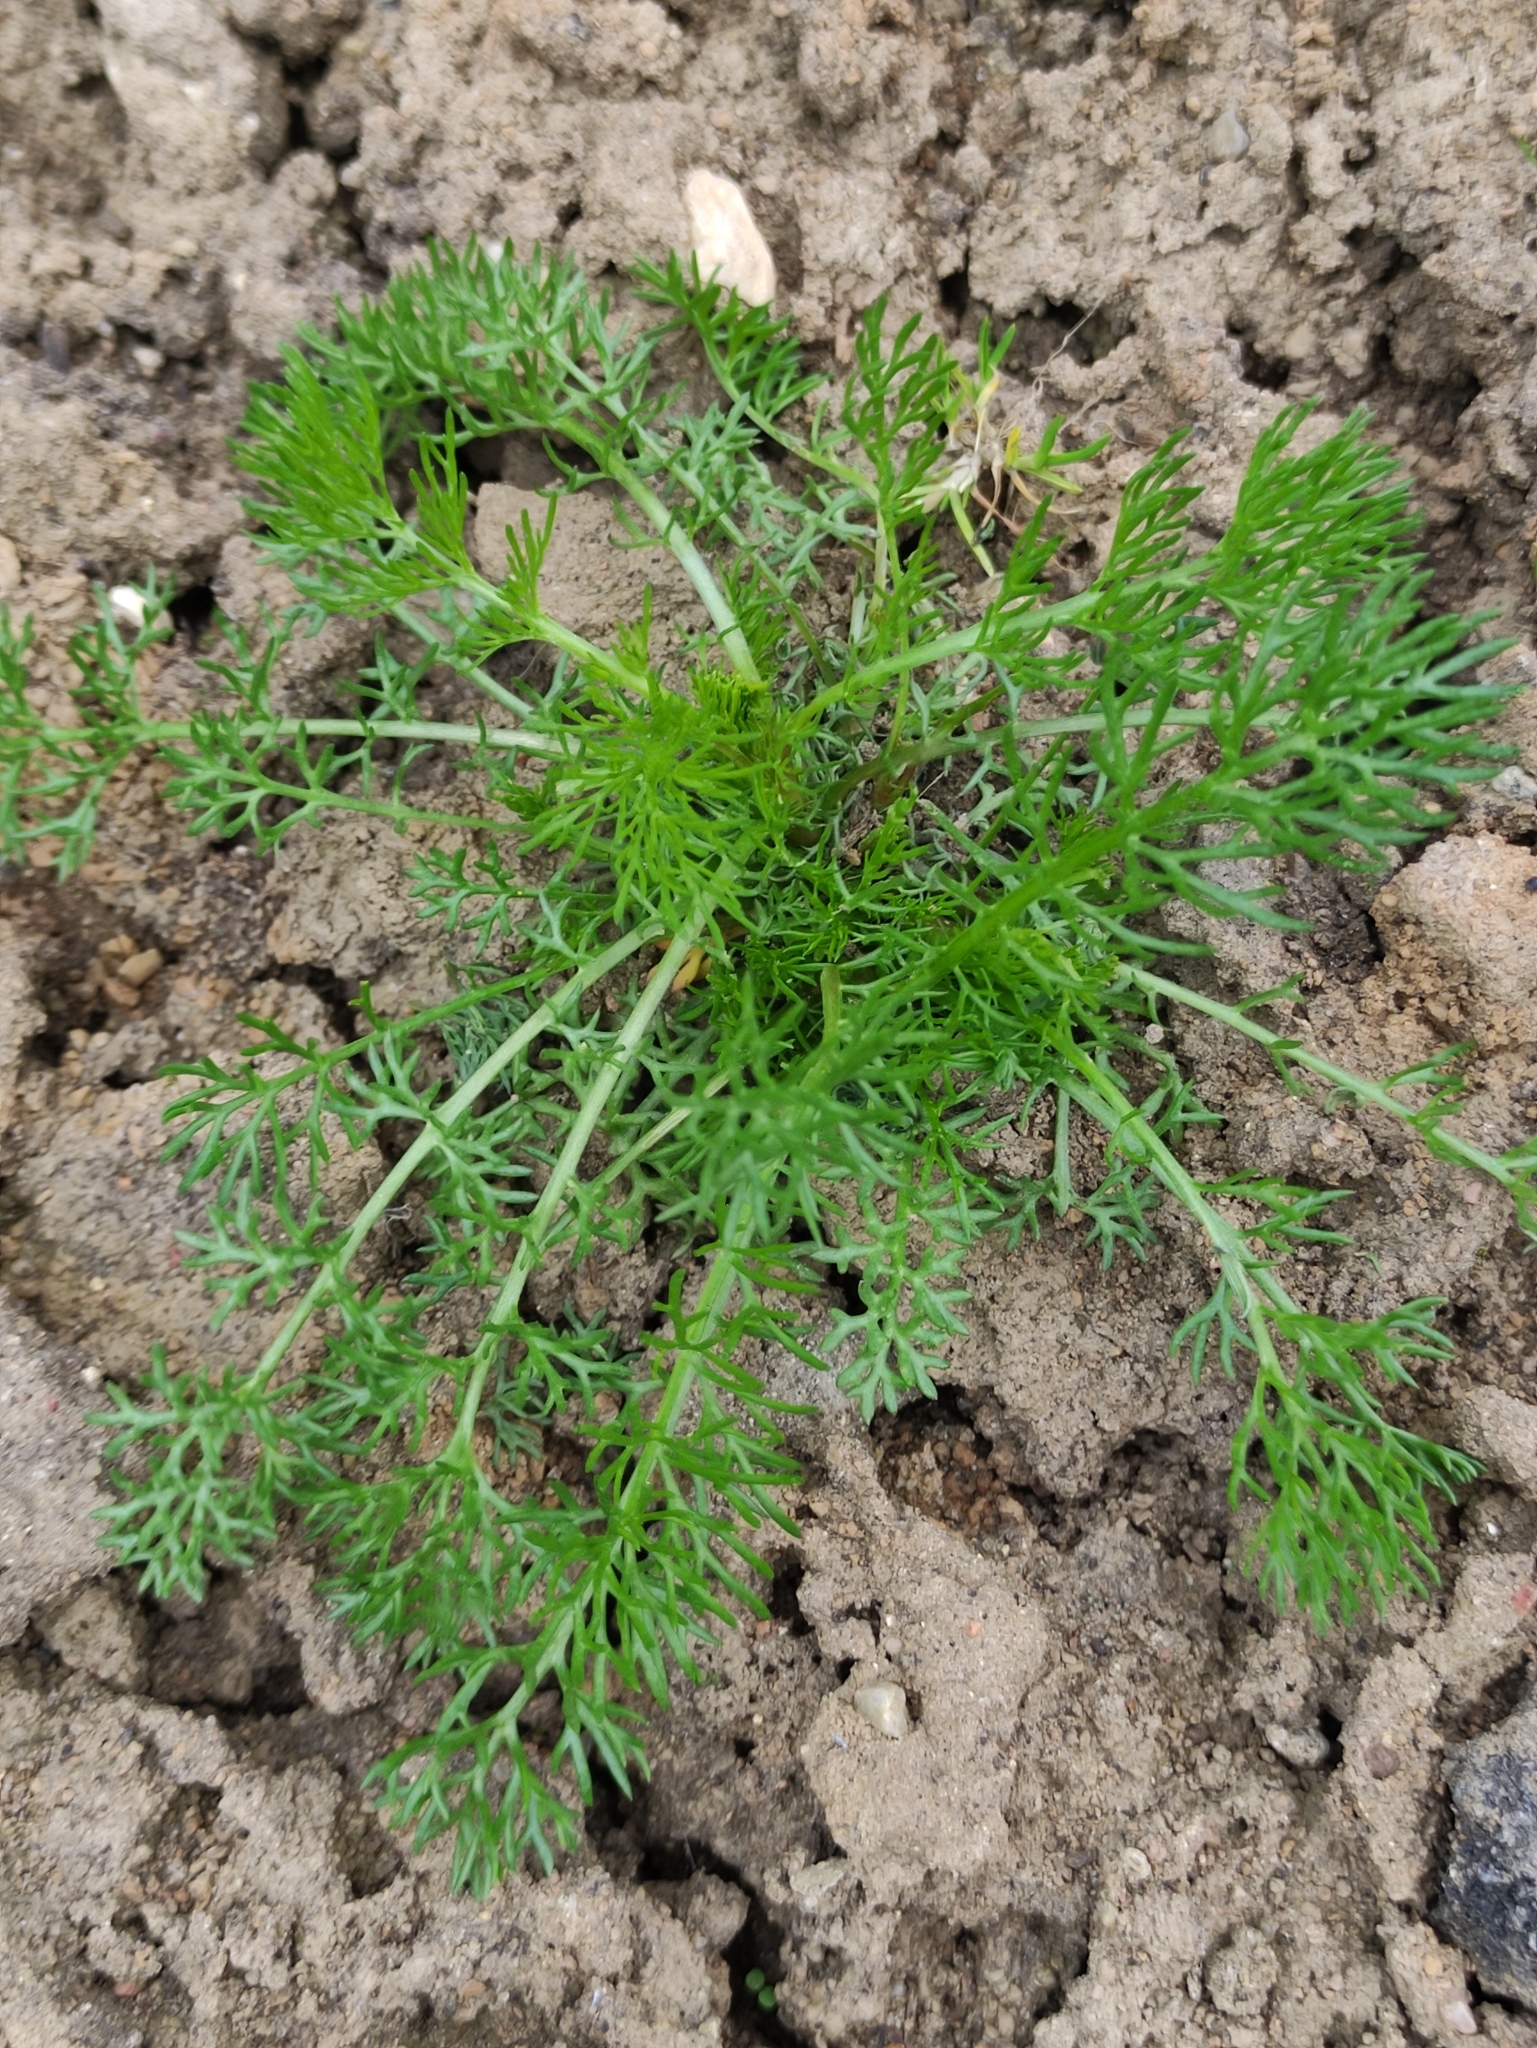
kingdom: Plantae
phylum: Tracheophyta
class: Magnoliopsida
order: Asterales
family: Asteraceae
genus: Tripleurospermum
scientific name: Tripleurospermum inodorum
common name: Scentless mayweed
